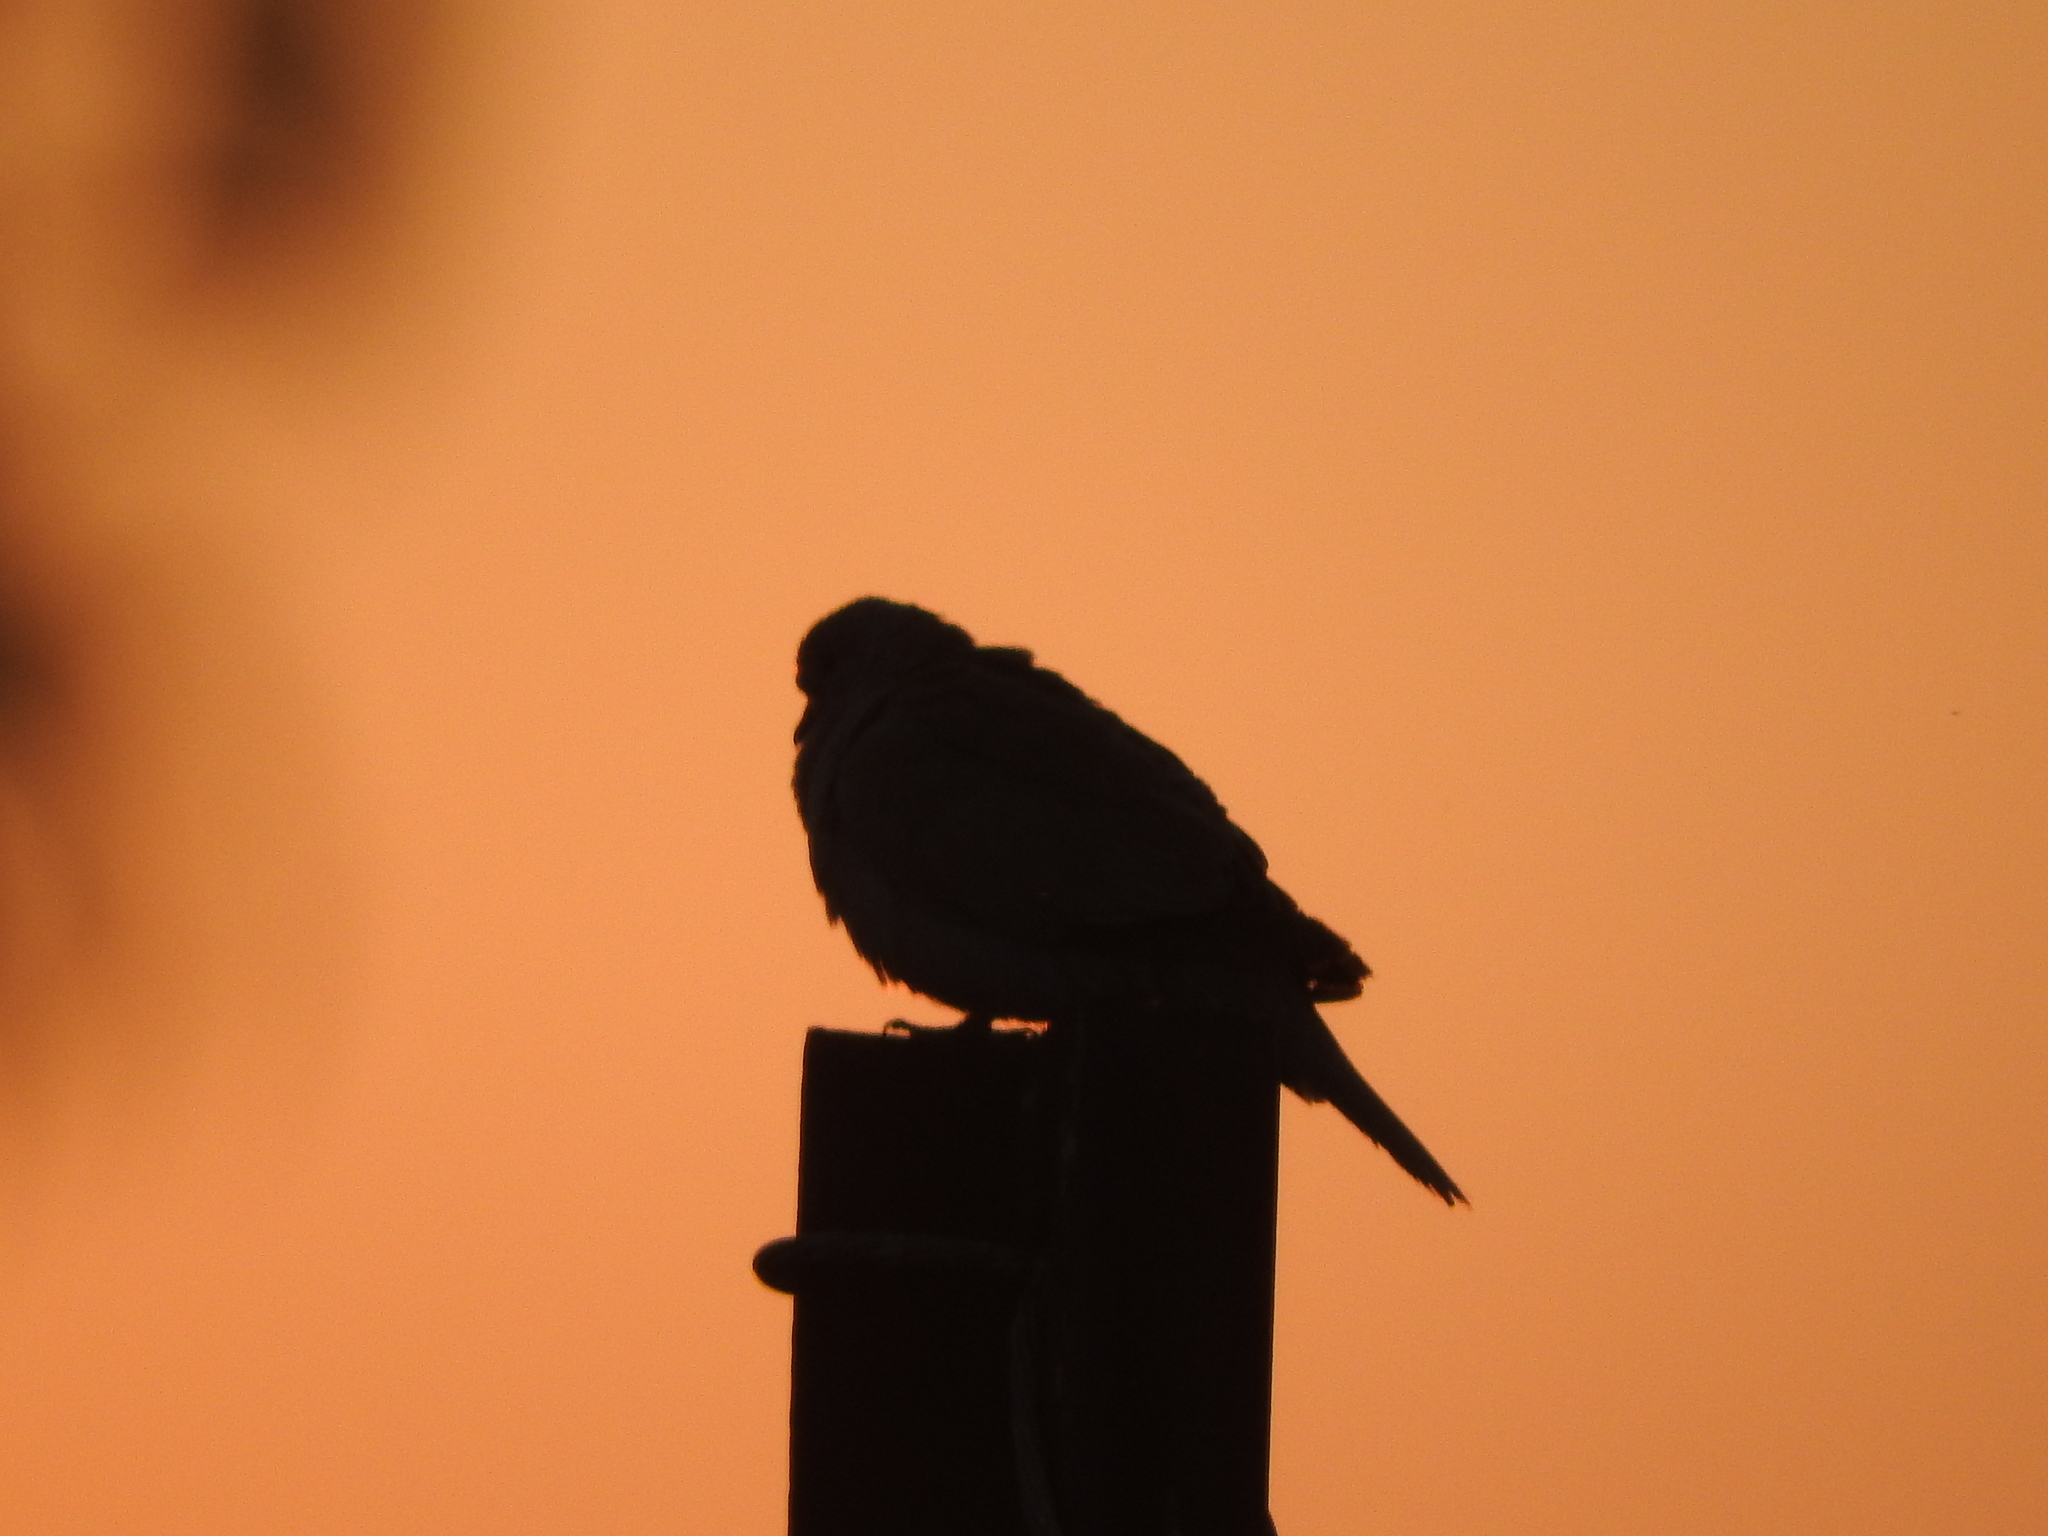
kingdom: Animalia
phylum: Chordata
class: Aves
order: Columbiformes
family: Columbidae
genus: Streptopelia
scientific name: Streptopelia decaocto
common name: Eurasian collared dove
